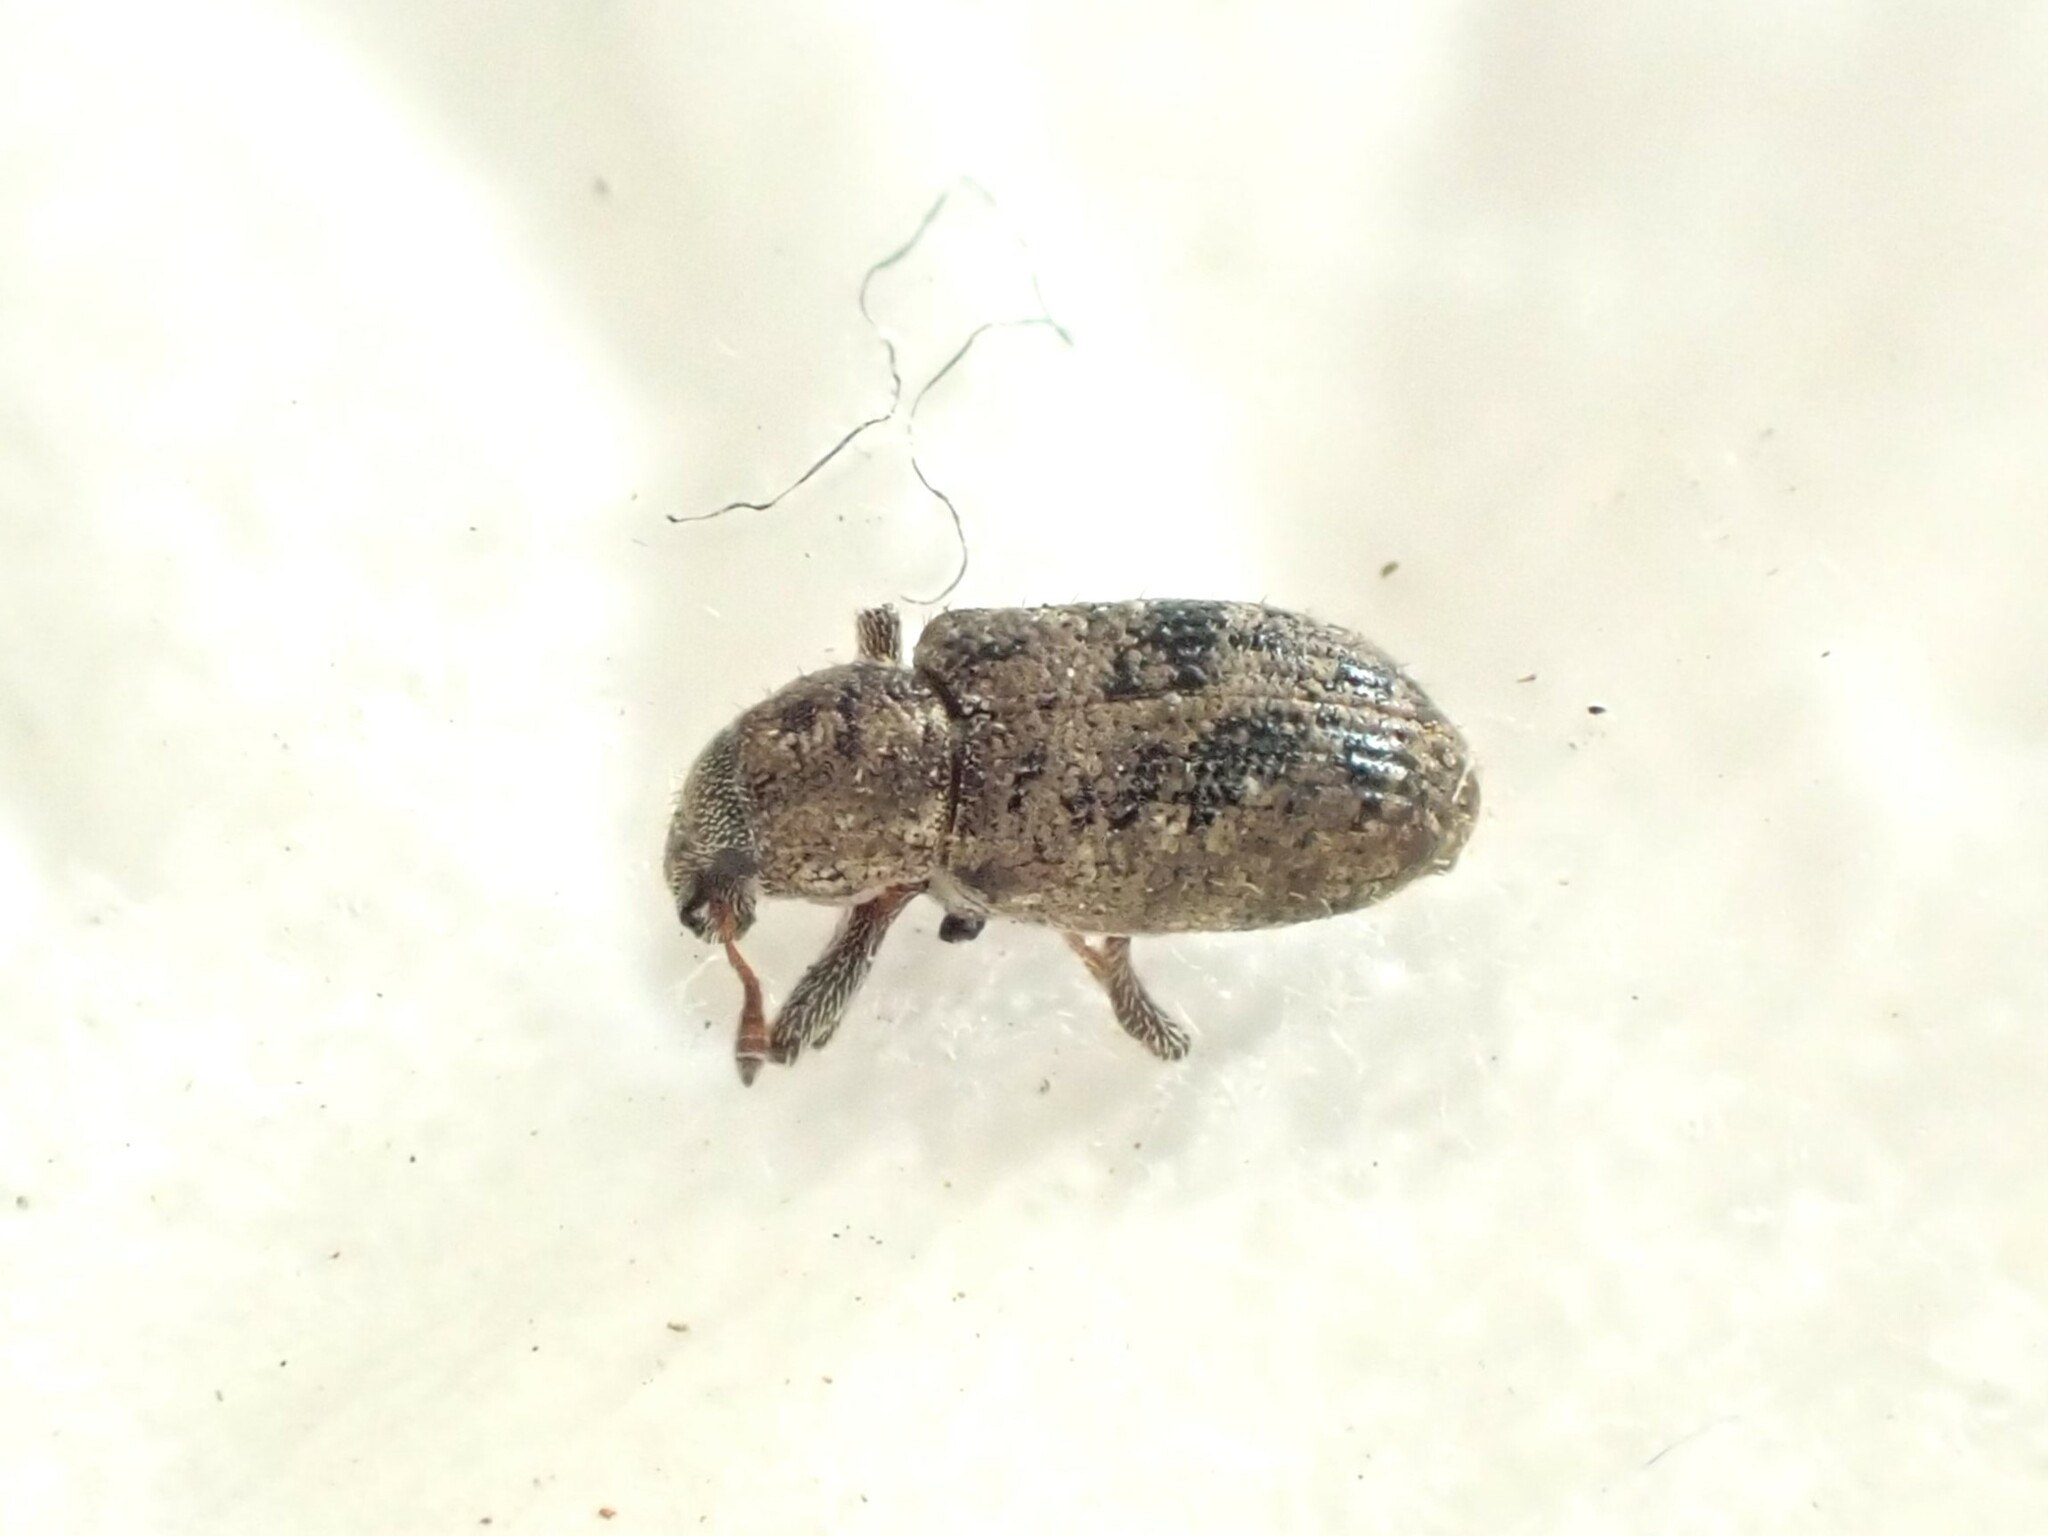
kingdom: Animalia
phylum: Arthropoda
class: Insecta
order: Coleoptera
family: Curculionidae
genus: Listronotus
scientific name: Listronotus bonariensis
